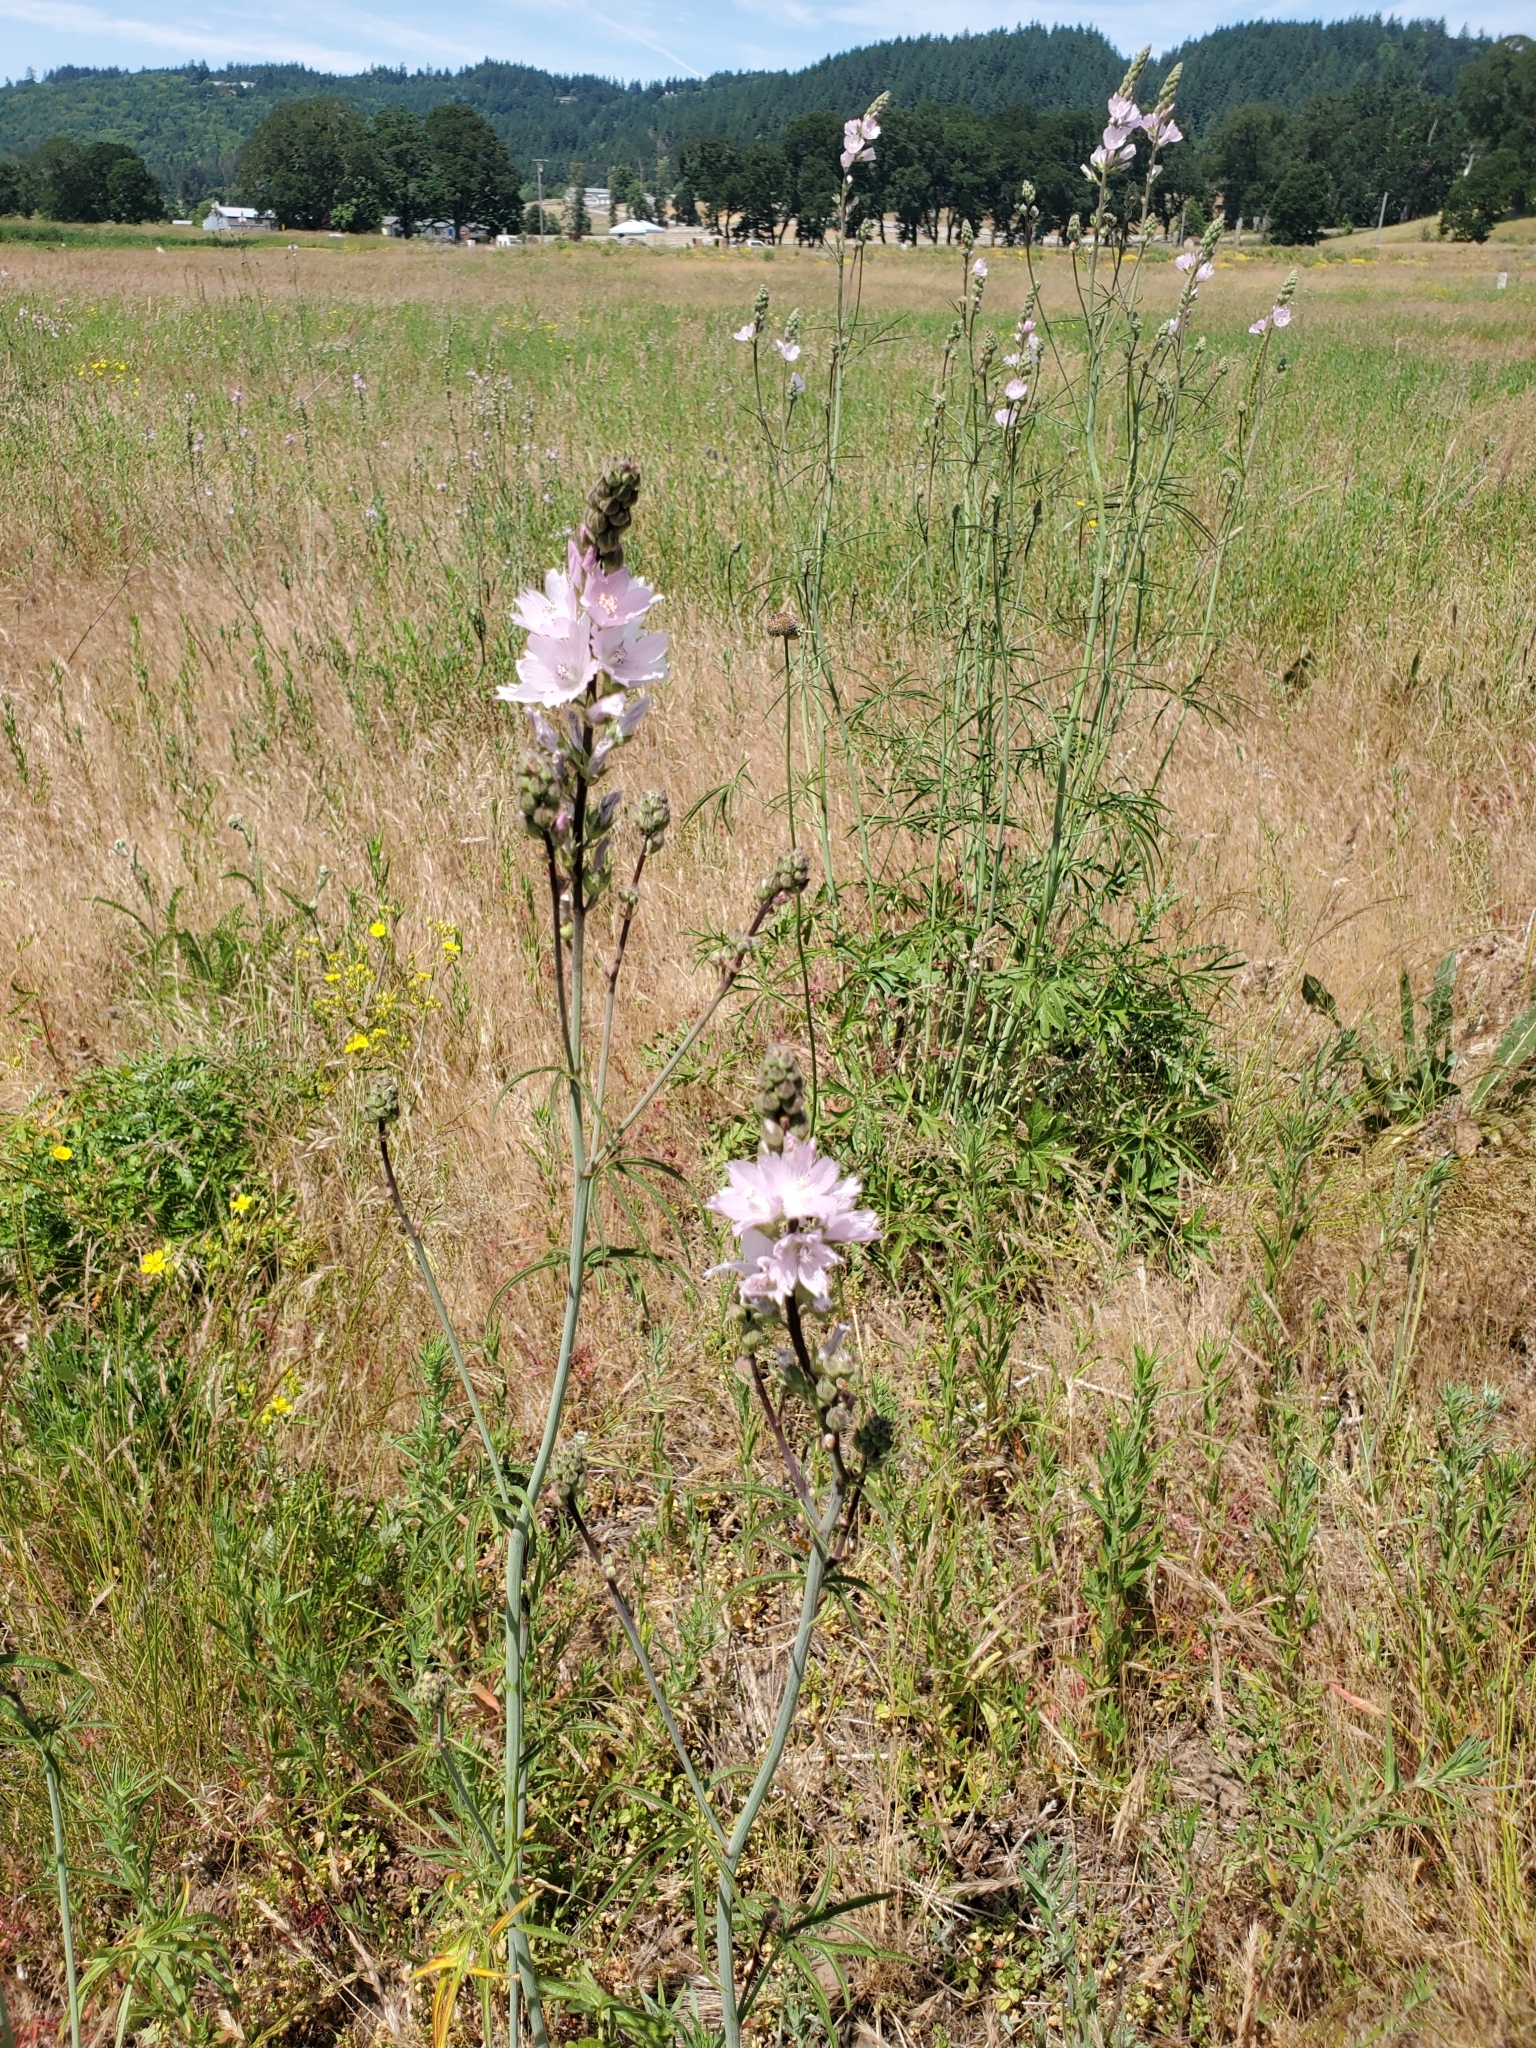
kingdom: Plantae
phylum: Tracheophyta
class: Magnoliopsida
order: Malvales
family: Malvaceae
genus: Sidalcea
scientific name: Sidalcea campestris
